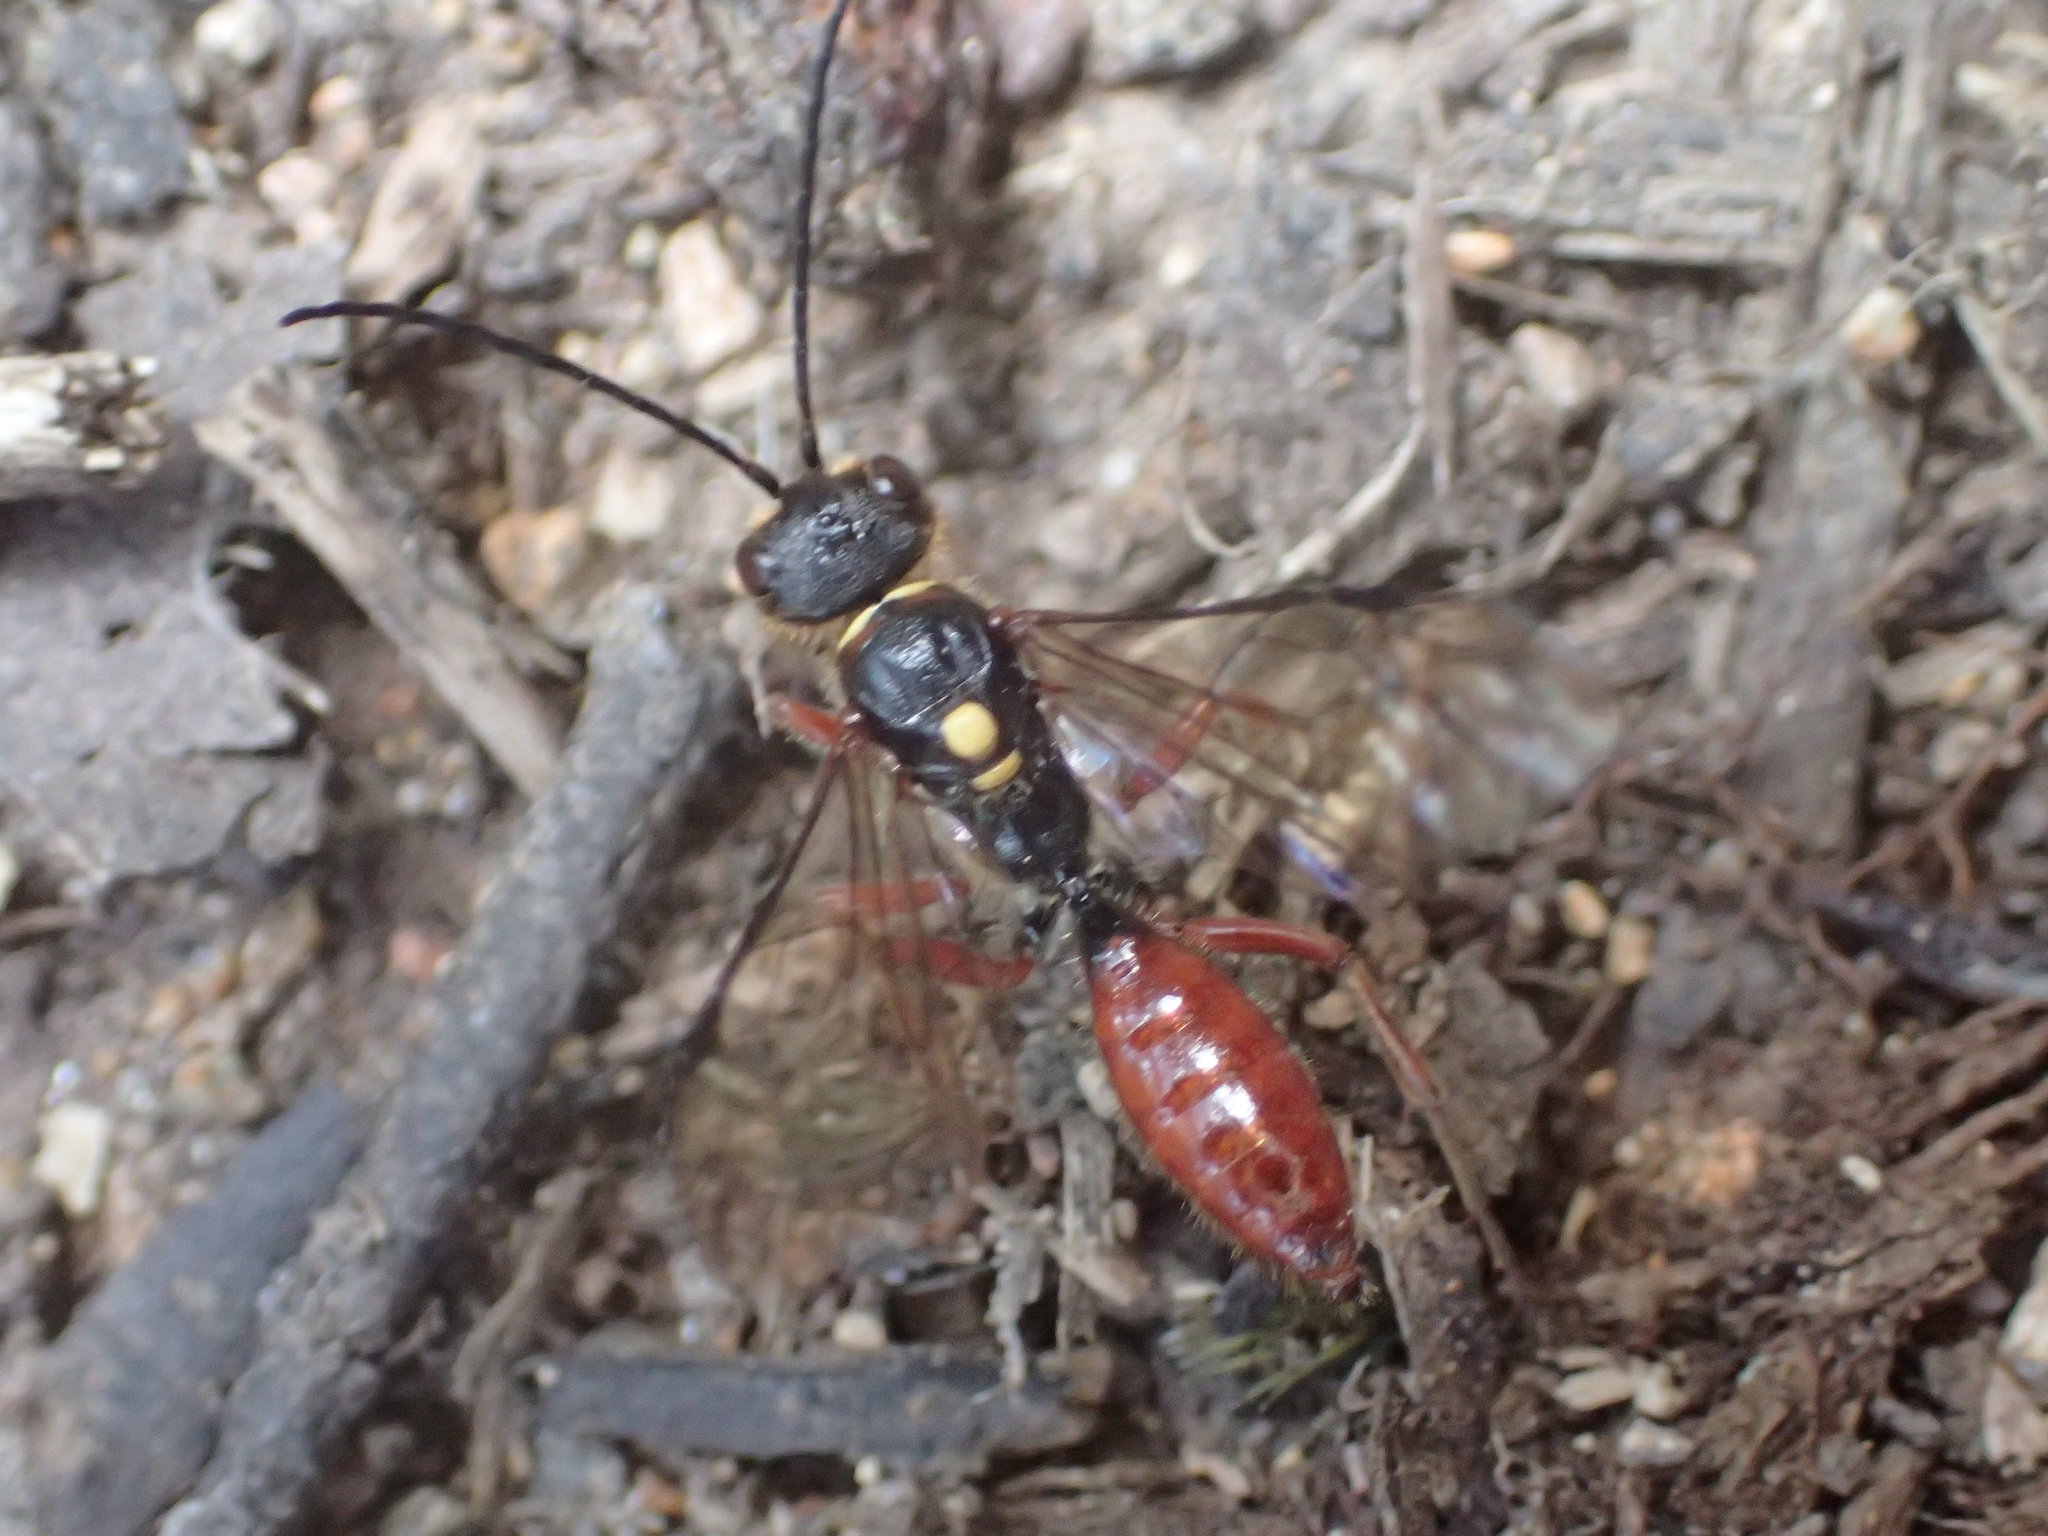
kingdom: Animalia
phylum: Arthropoda
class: Insecta
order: Hymenoptera
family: Tiphiidae
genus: Tachynomyia
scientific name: Tachynomyia
